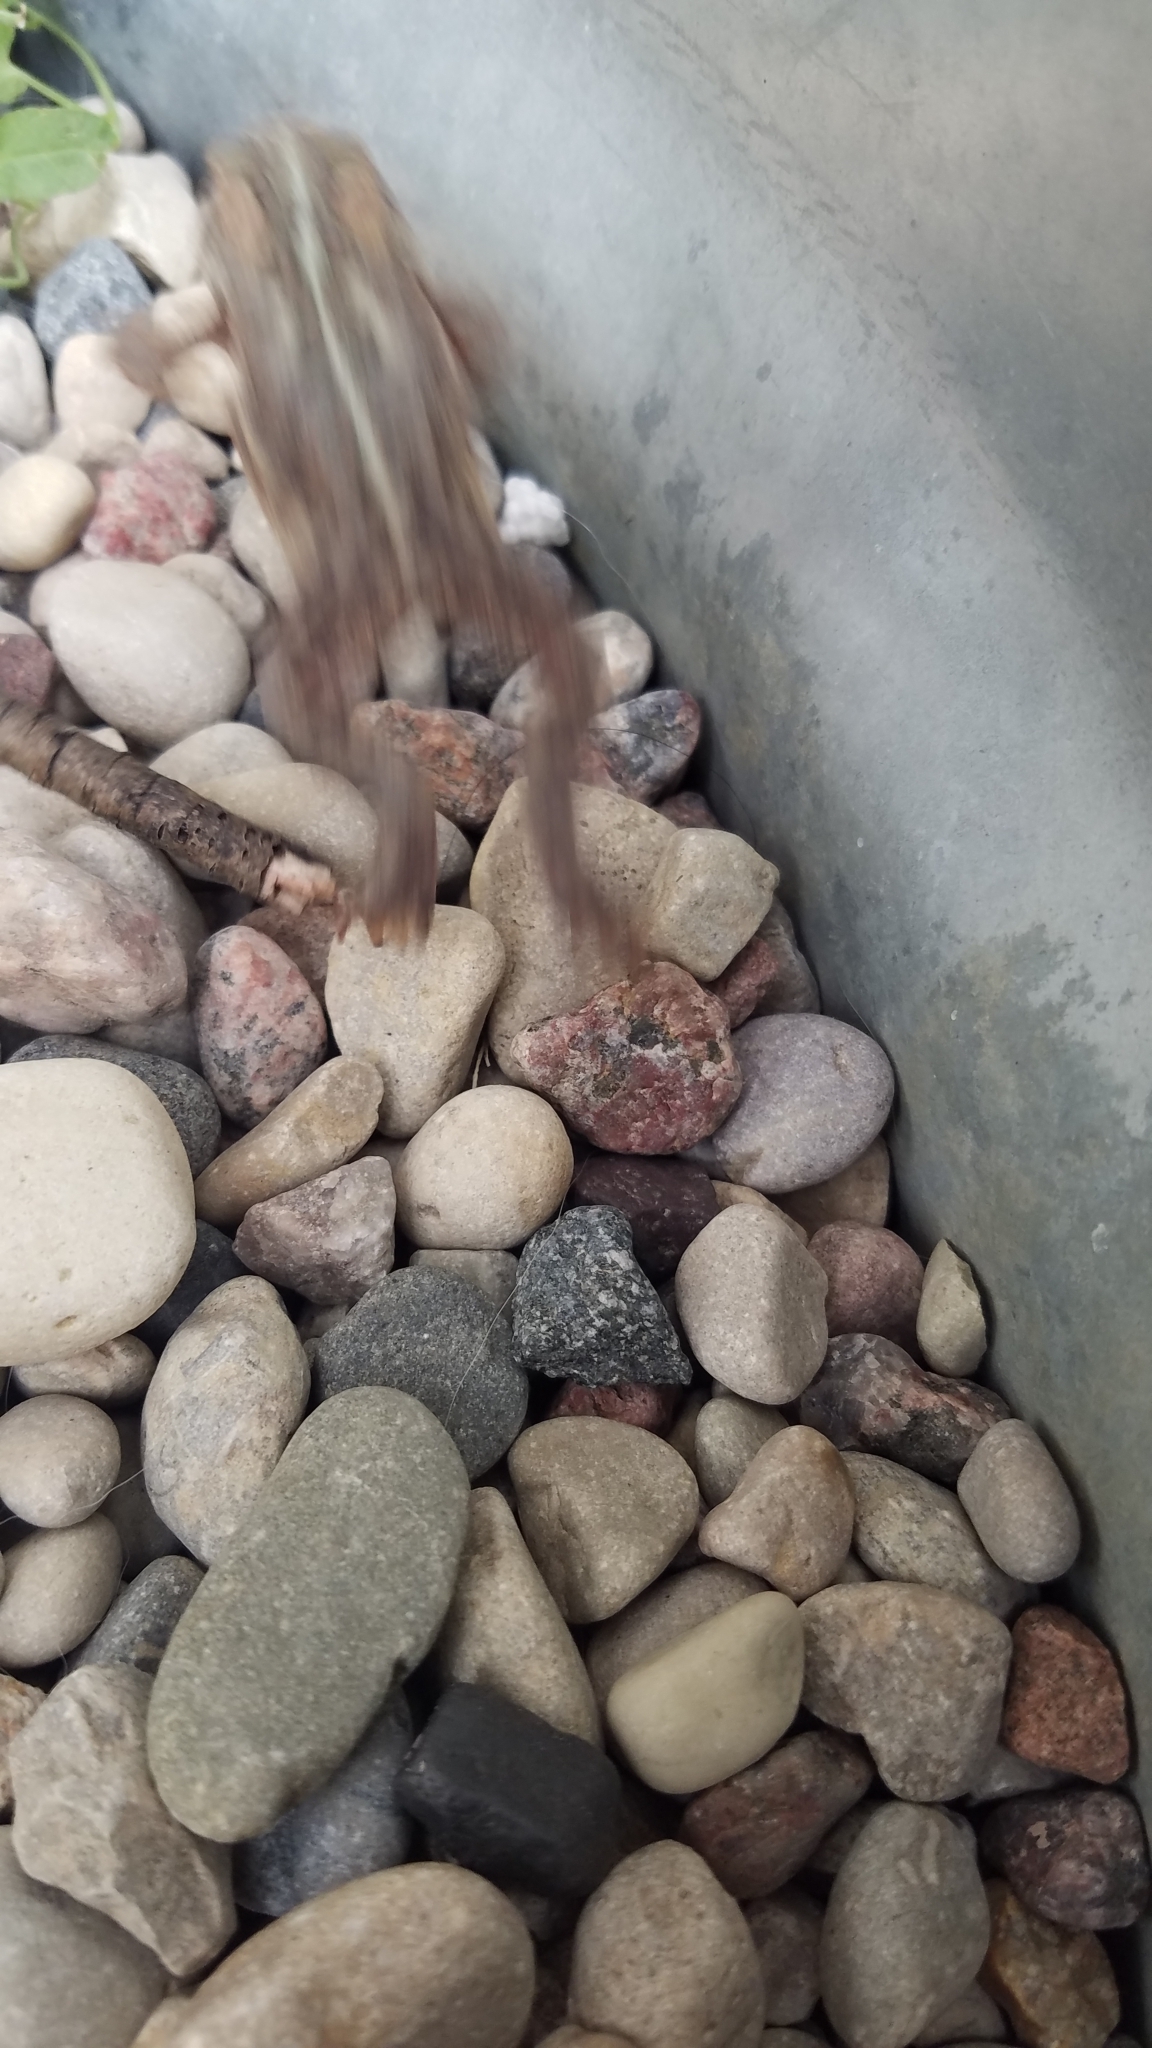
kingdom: Animalia
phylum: Chordata
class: Amphibia
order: Anura
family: Bufonidae
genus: Anaxyrus
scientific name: Anaxyrus americanus
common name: American toad
